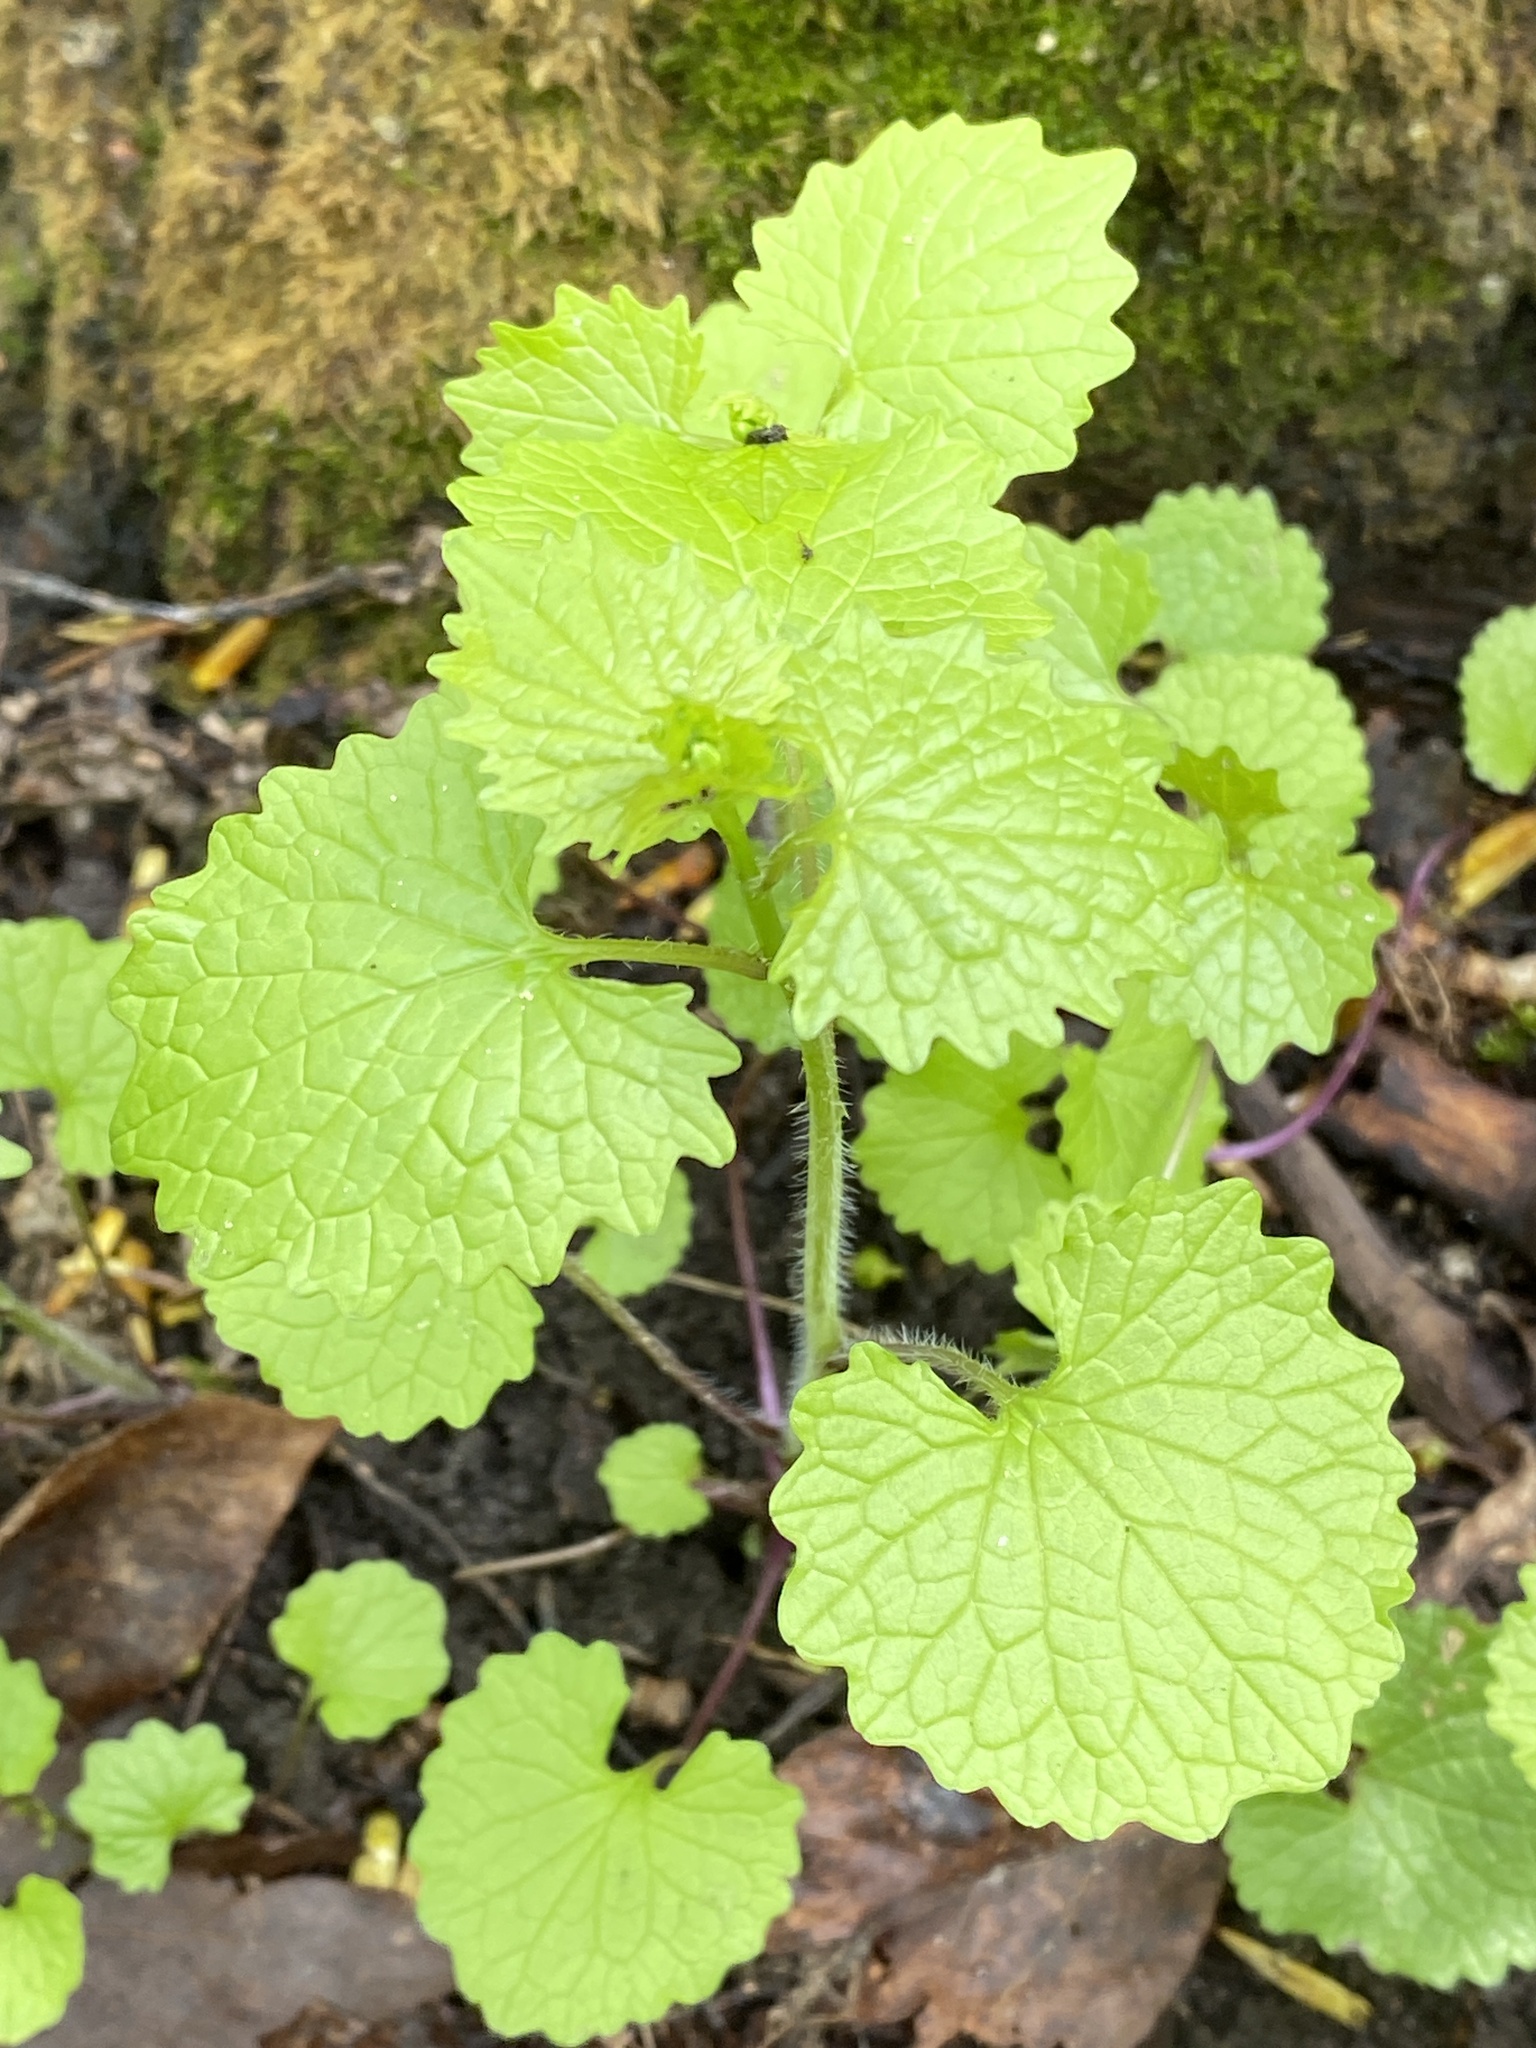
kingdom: Plantae
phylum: Tracheophyta
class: Magnoliopsida
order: Brassicales
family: Brassicaceae
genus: Alliaria
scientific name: Alliaria petiolata
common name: Garlic mustard
